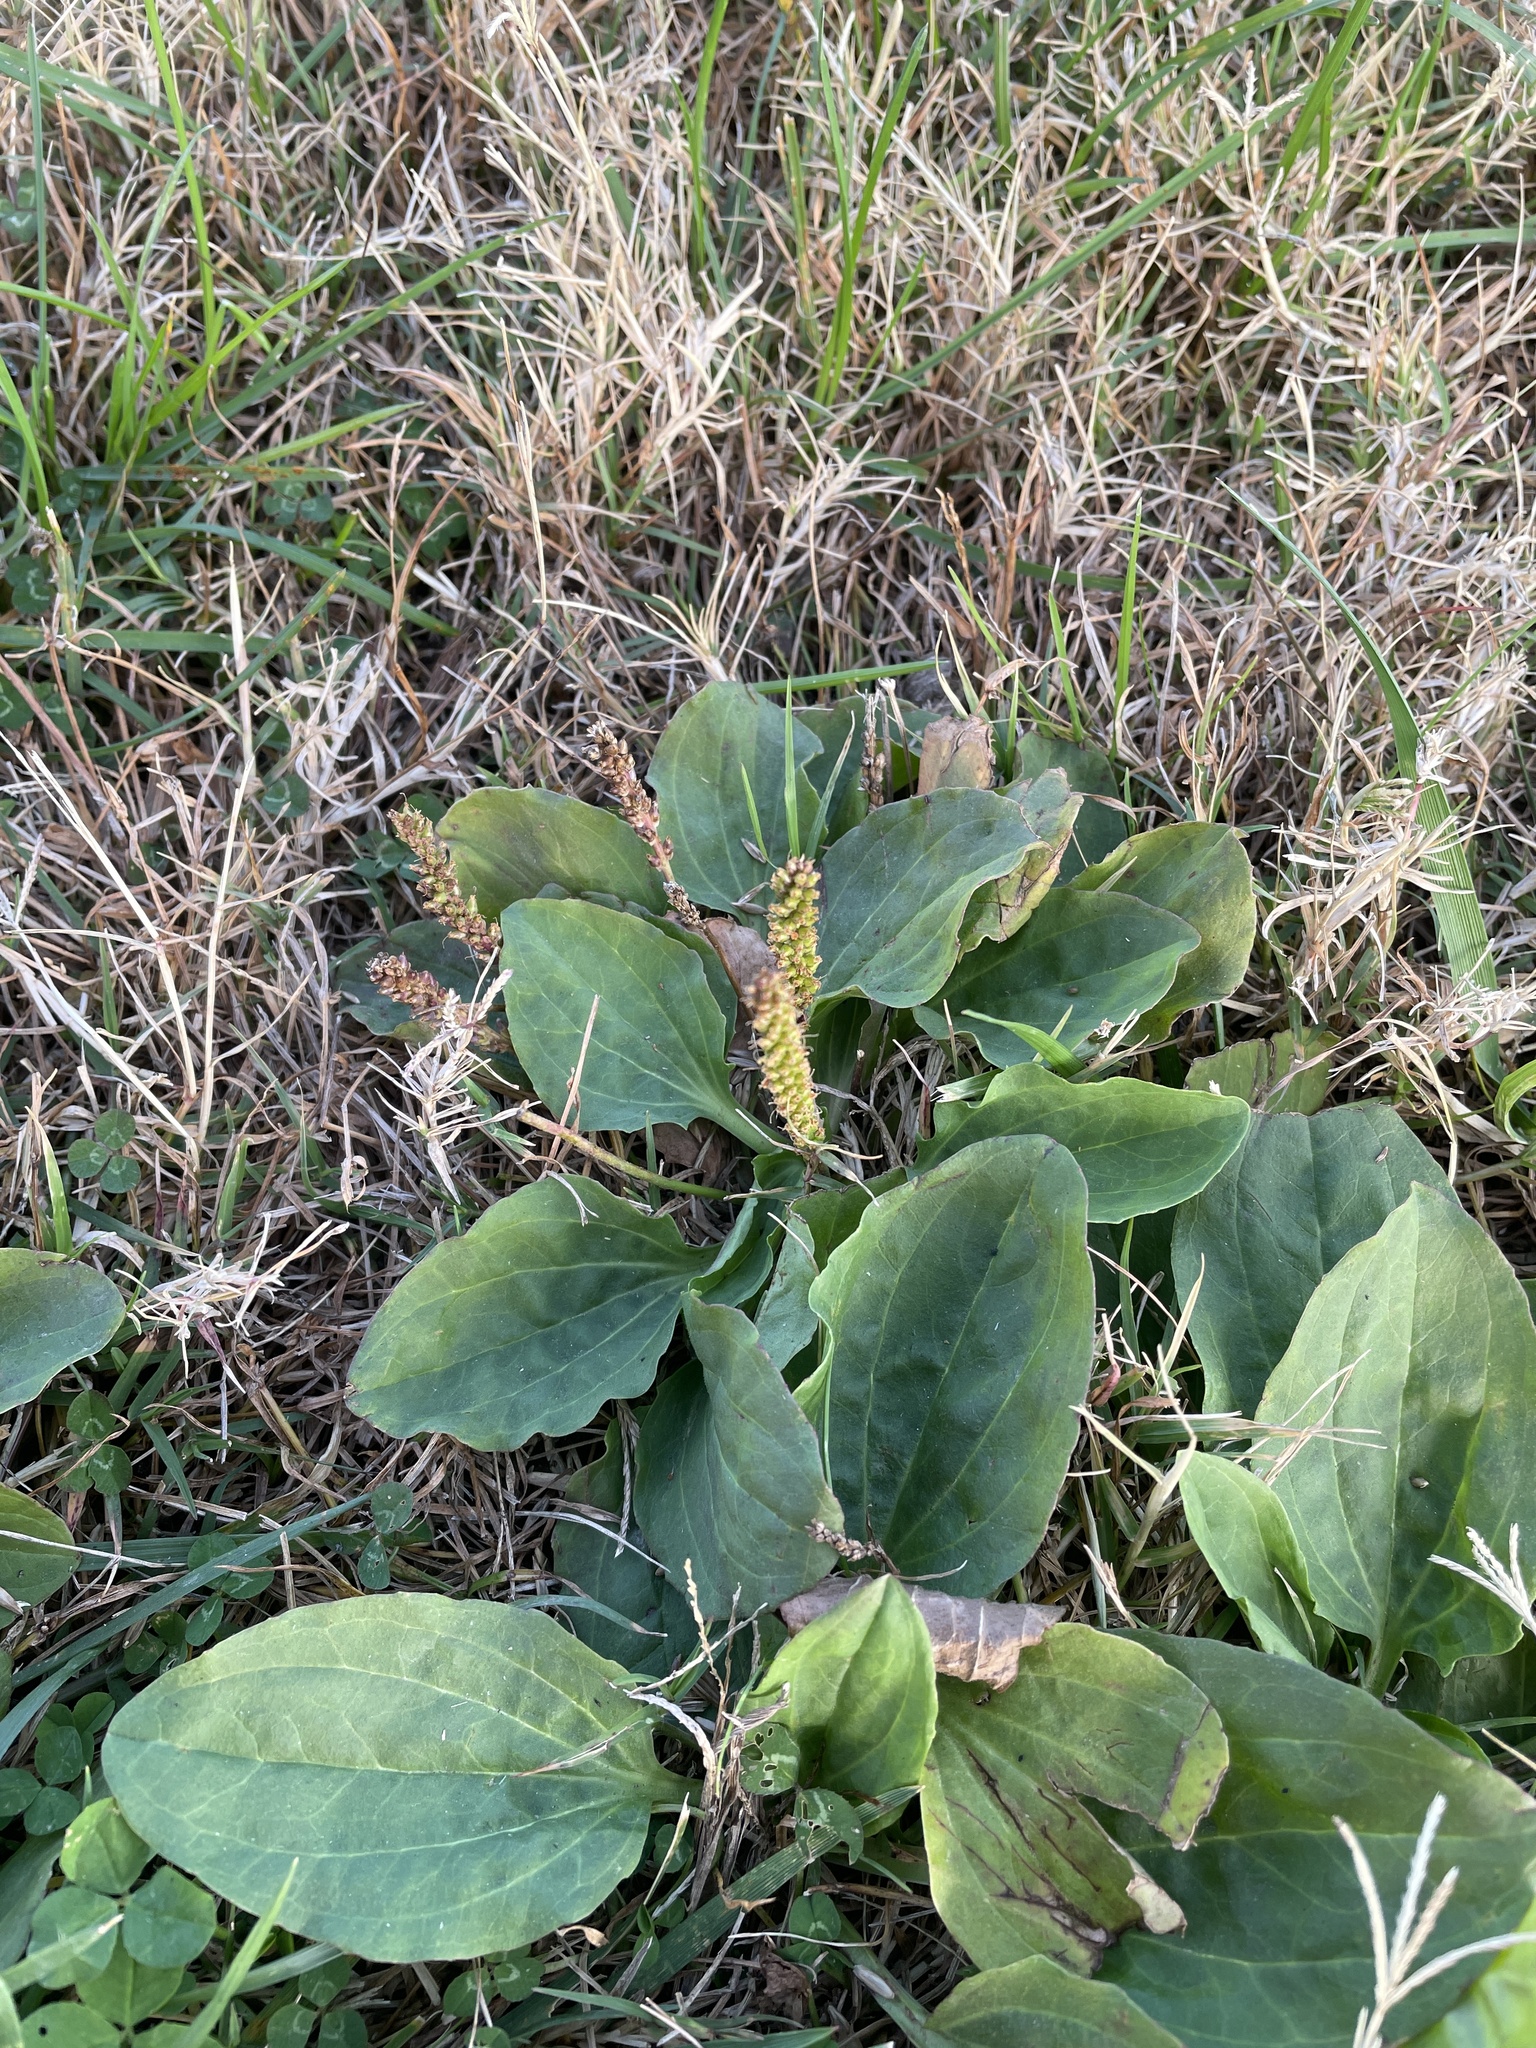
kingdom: Plantae
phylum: Tracheophyta
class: Magnoliopsida
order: Lamiales
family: Plantaginaceae
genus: Plantago
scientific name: Plantago rugelii
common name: American plantain
